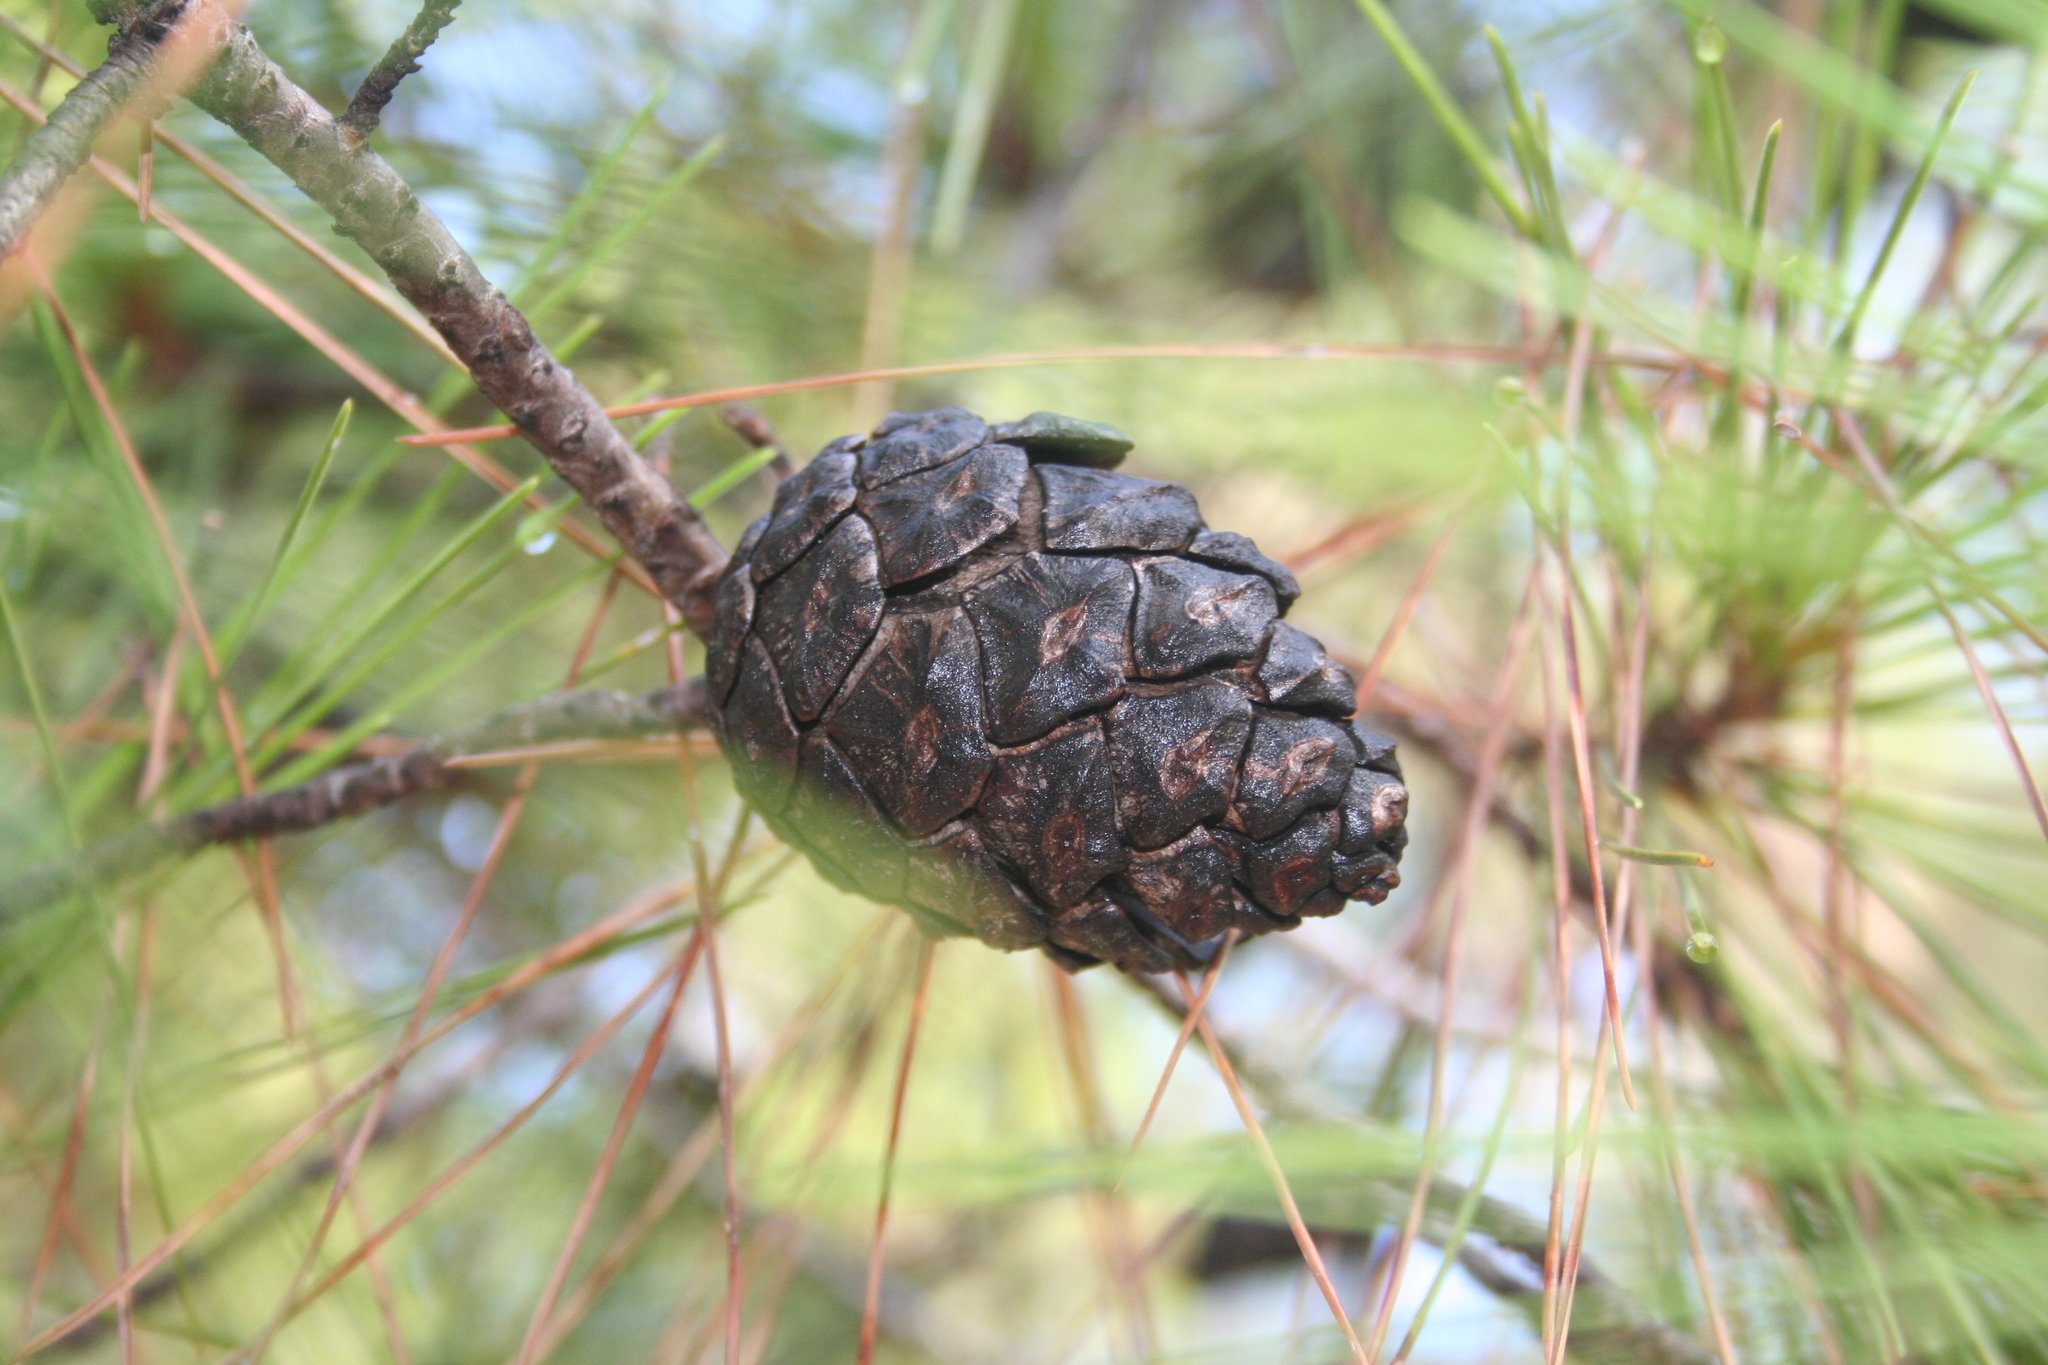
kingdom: Plantae
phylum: Tracheophyta
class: Pinopsida
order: Pinales
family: Pinaceae
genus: Pinus
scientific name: Pinus brutia
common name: Turkish pine
